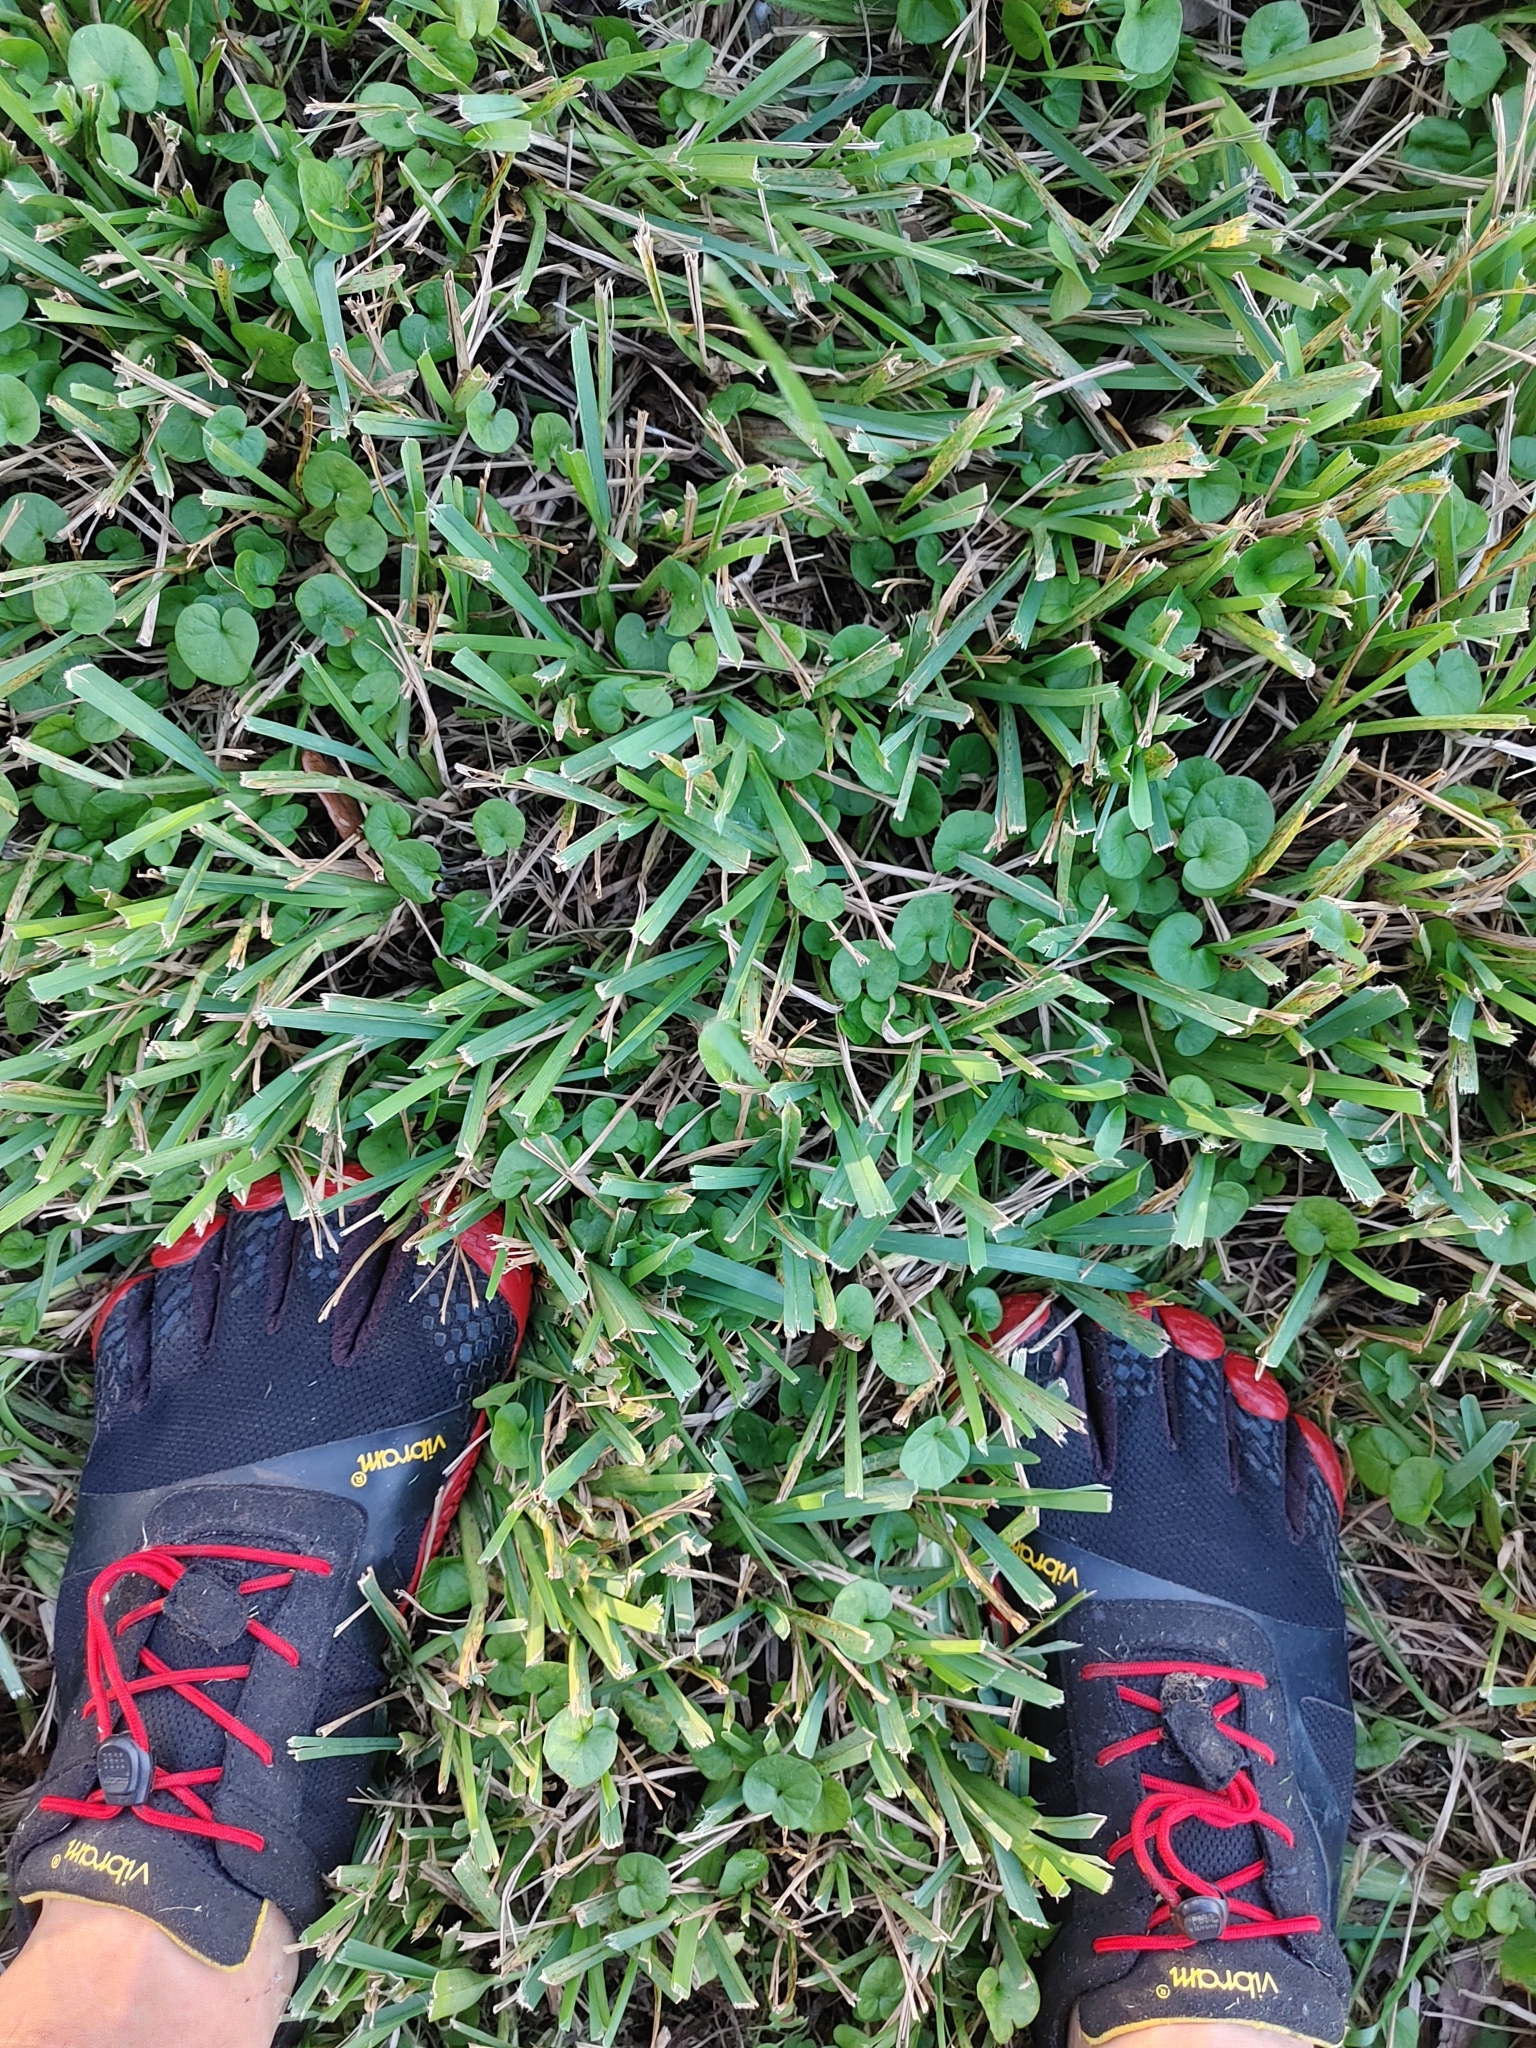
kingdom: Plantae
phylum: Tracheophyta
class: Liliopsida
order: Poales
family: Poaceae
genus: Stenotaphrum
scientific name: Stenotaphrum secundatum
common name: St. augustine grass
